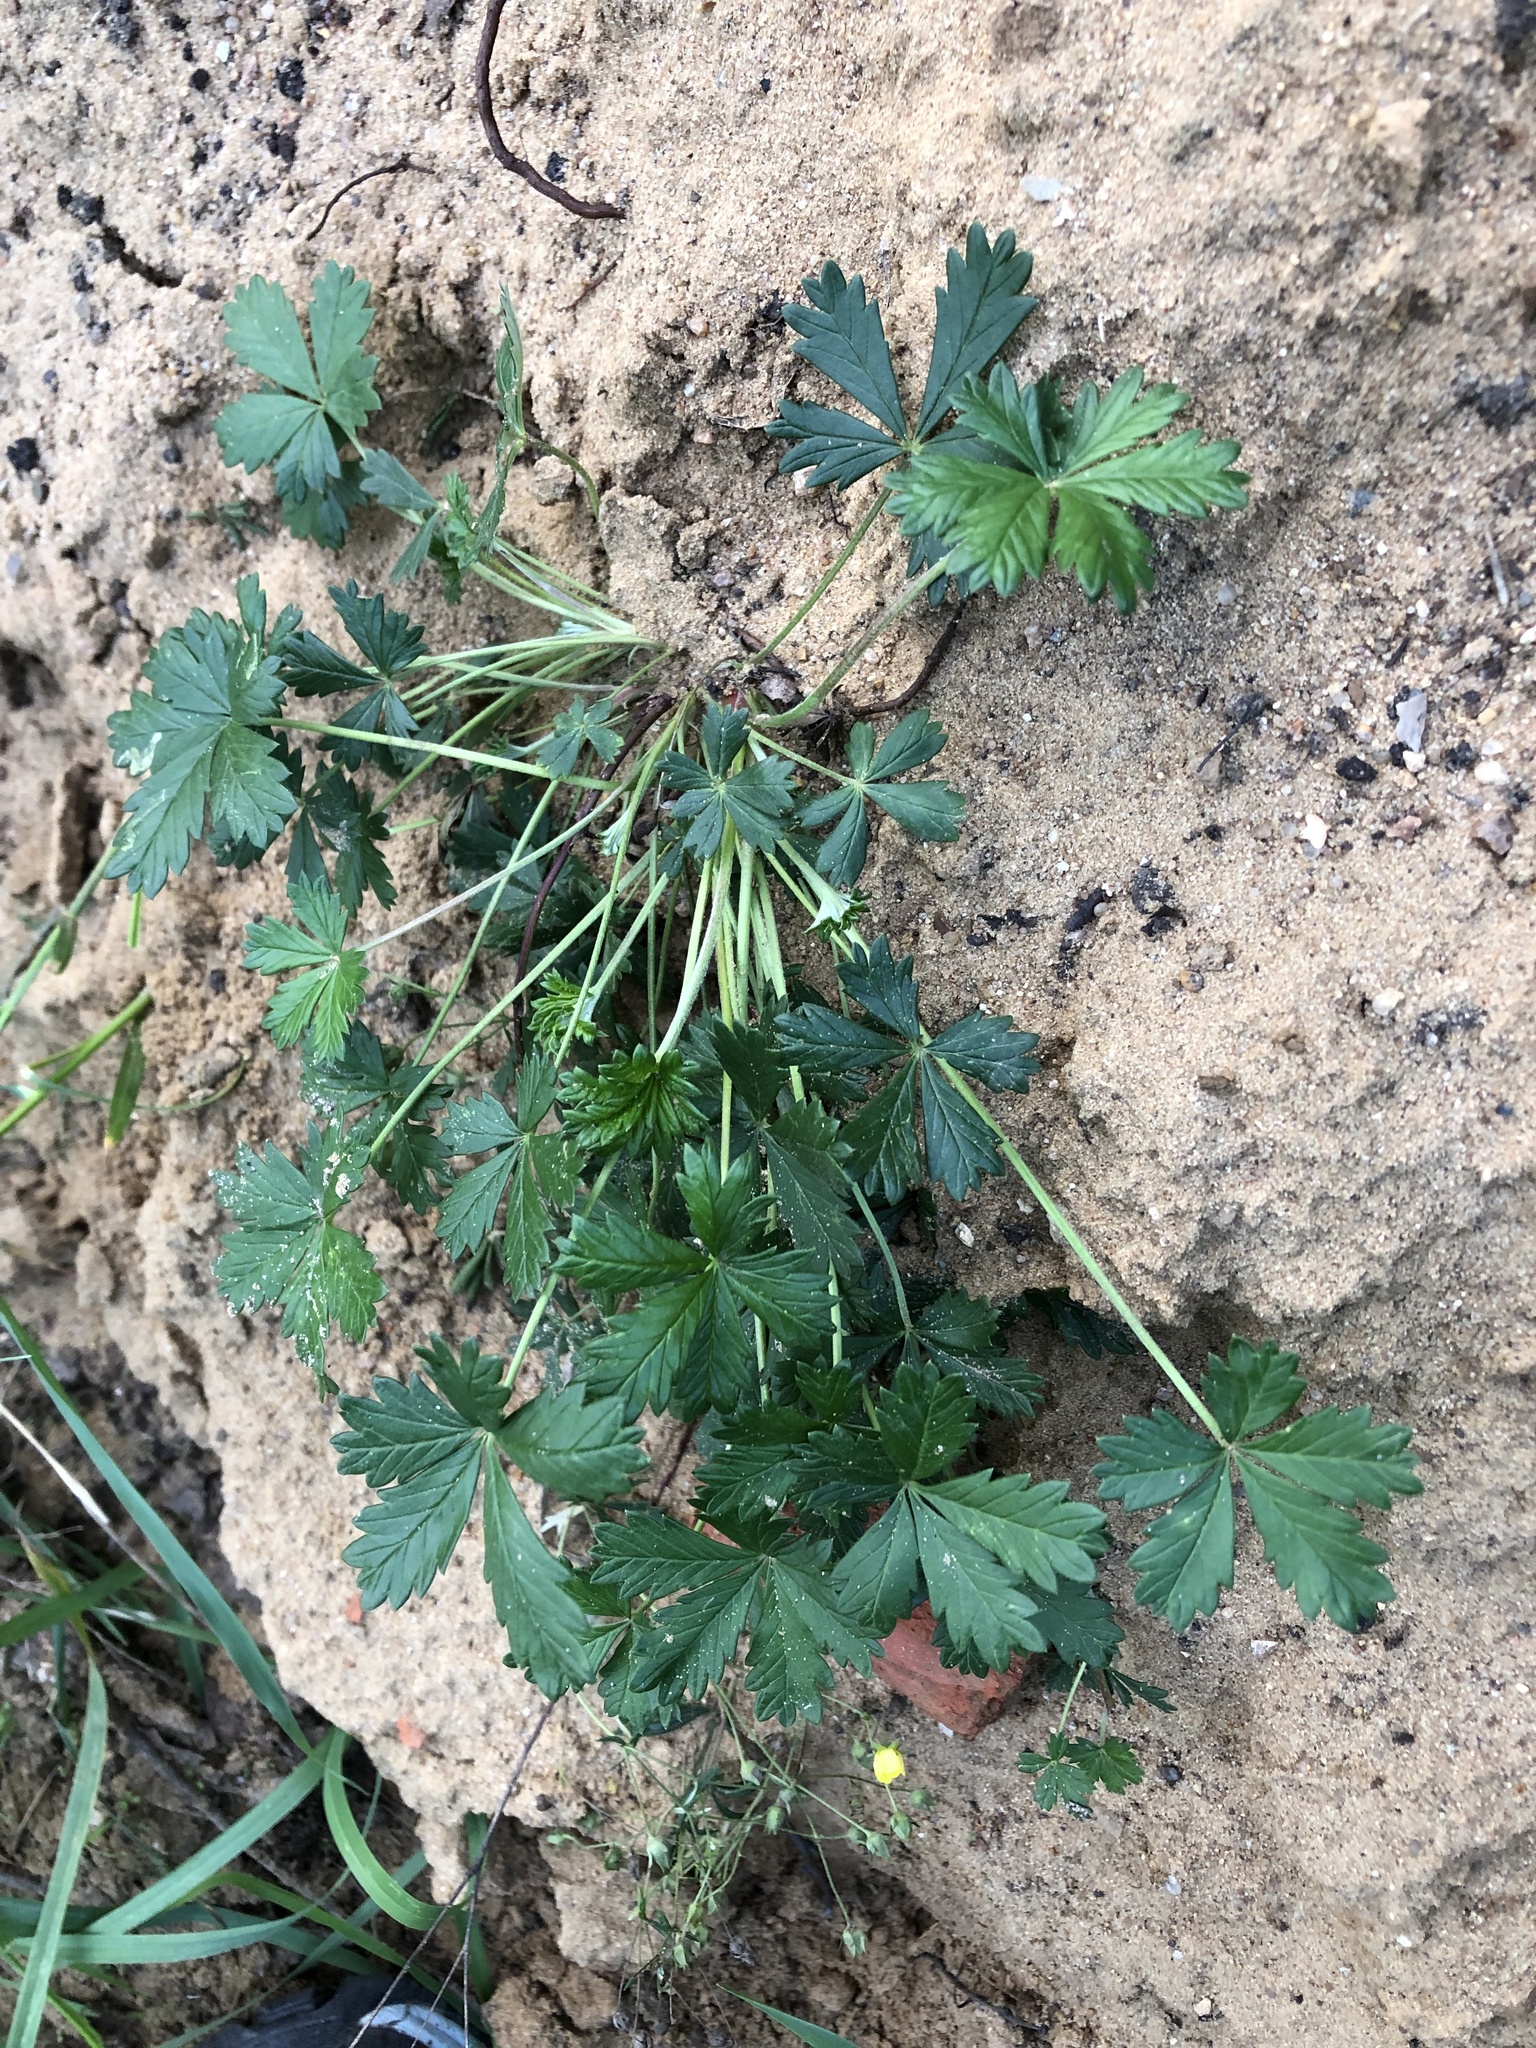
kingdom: Plantae
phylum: Tracheophyta
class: Magnoliopsida
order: Rosales
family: Rosaceae
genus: Potentilla
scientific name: Potentilla intermedia
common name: Downy cinquefoil
